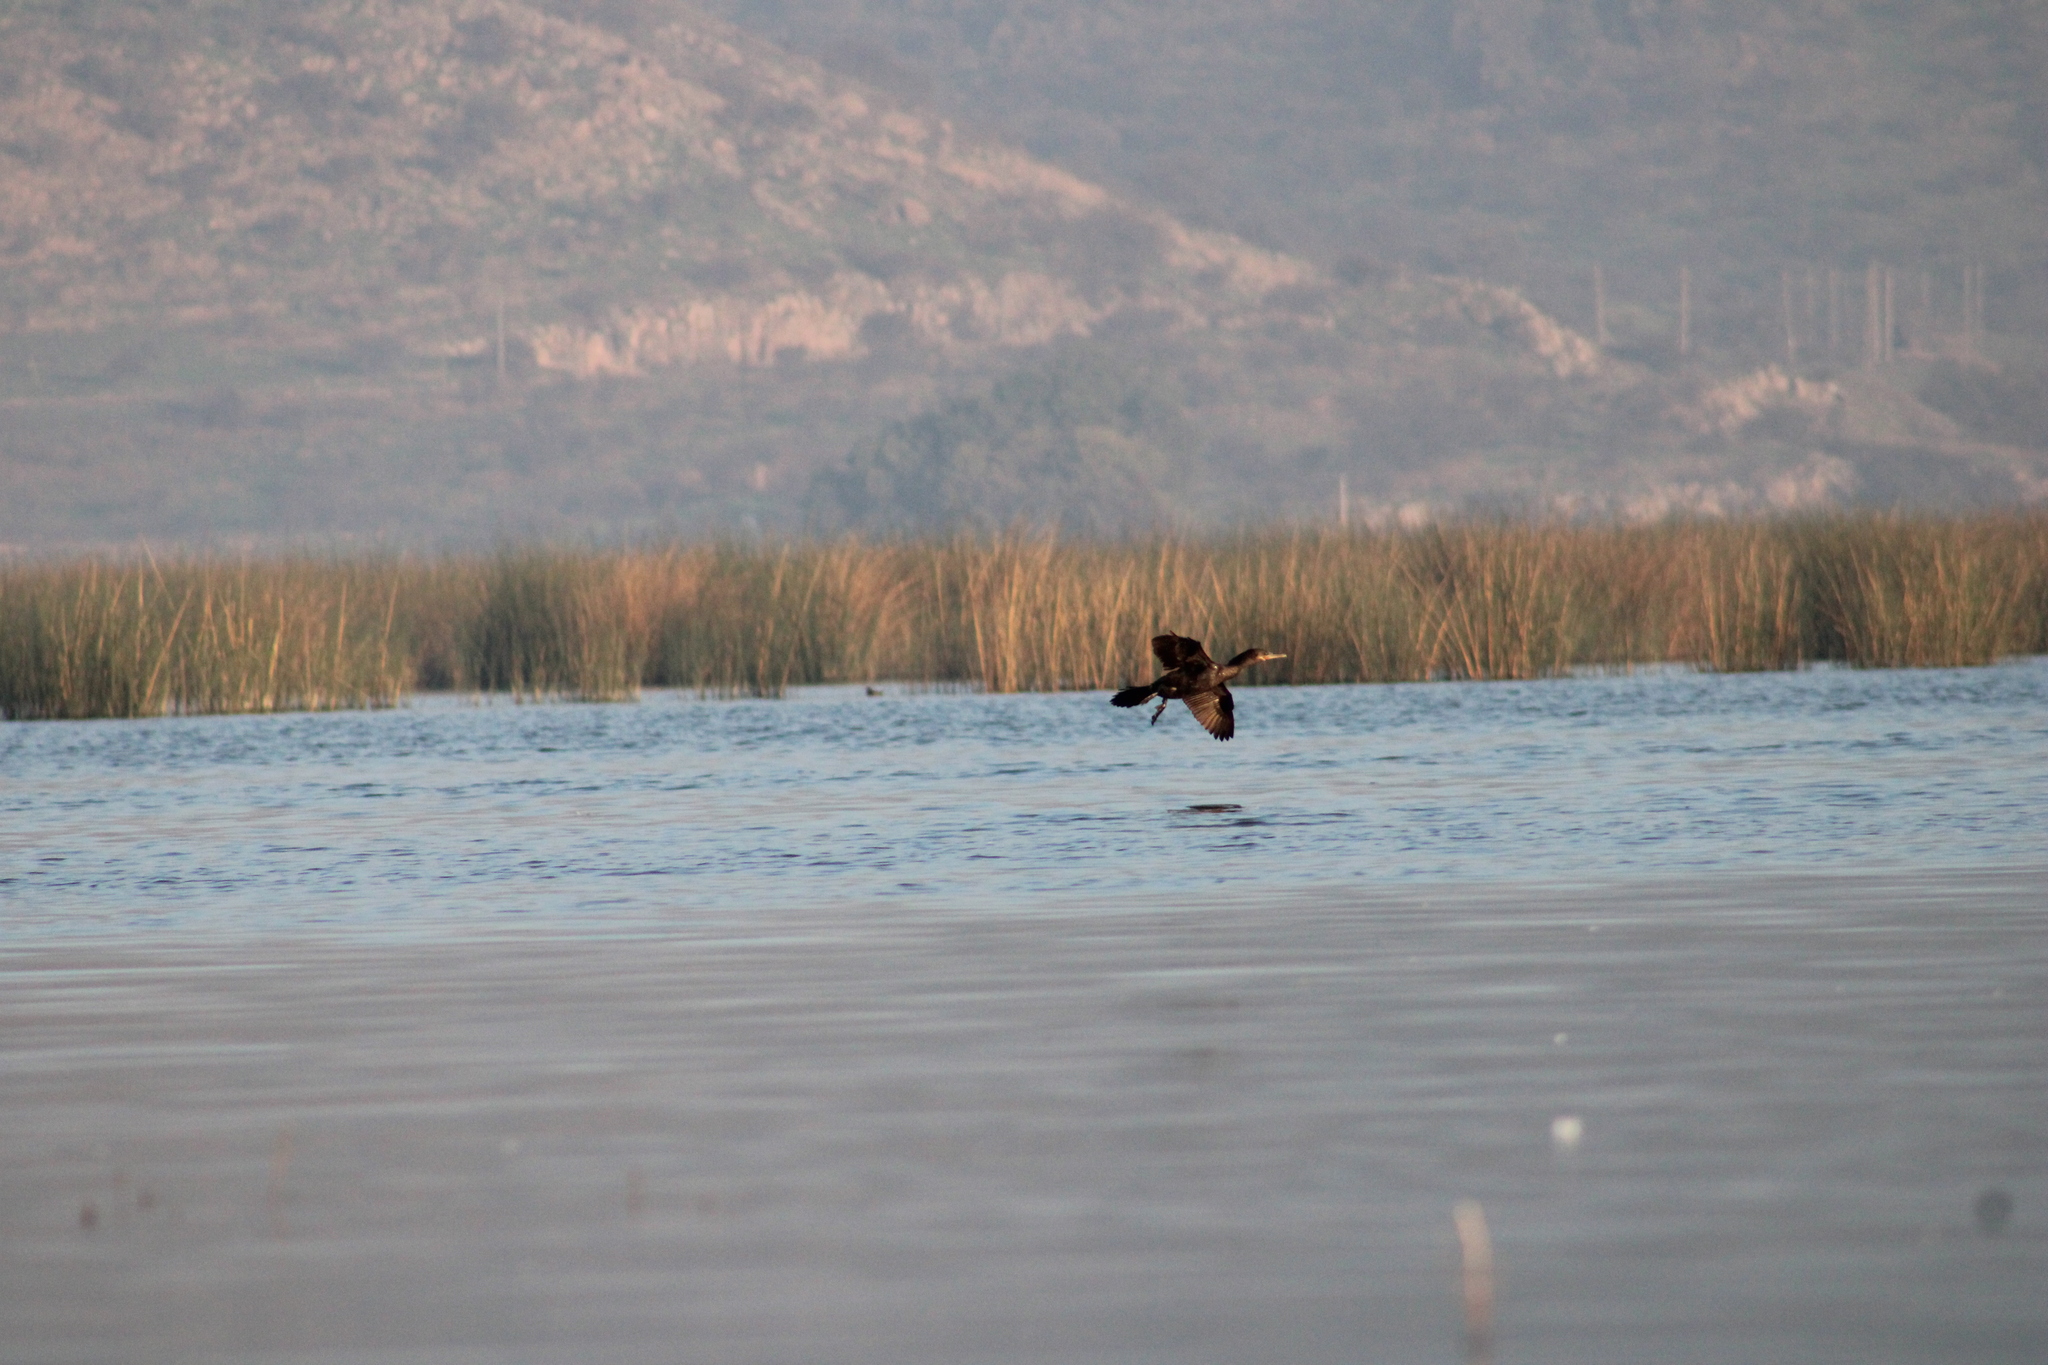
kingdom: Animalia
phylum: Chordata
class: Aves
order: Suliformes
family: Phalacrocoracidae
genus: Phalacrocorax
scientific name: Phalacrocorax brasilianus
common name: Neotropic cormorant
